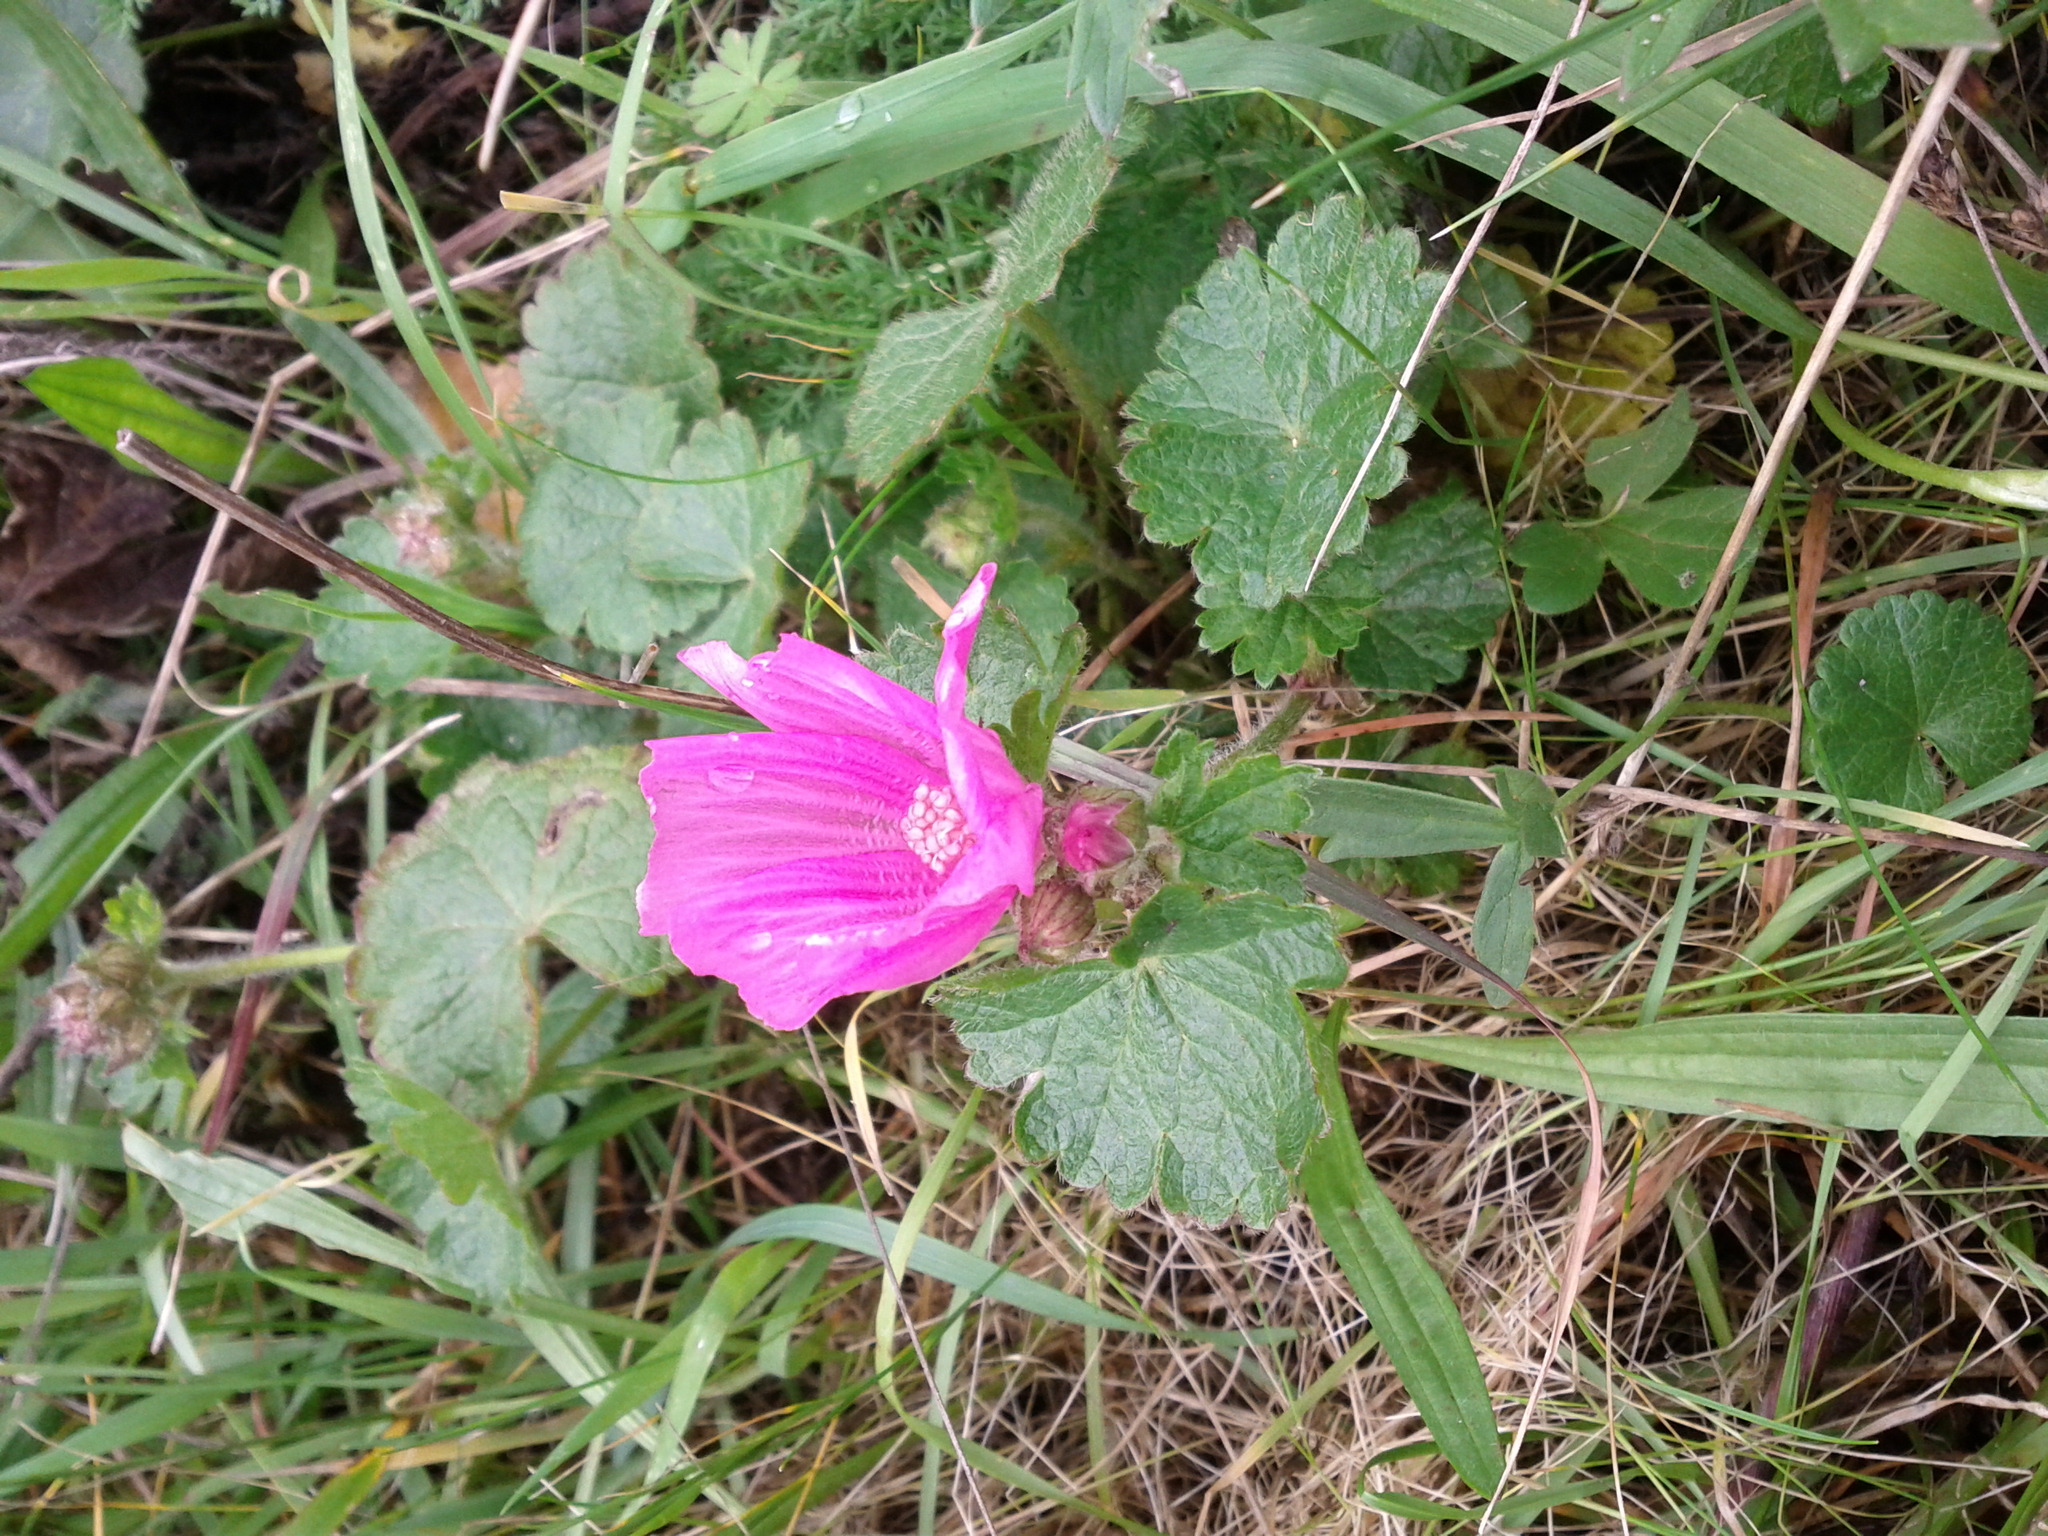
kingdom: Plantae
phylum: Tracheophyta
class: Magnoliopsida
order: Malvales
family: Malvaceae
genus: Sidalcea
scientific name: Sidalcea malviflora
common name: Greek mallow
